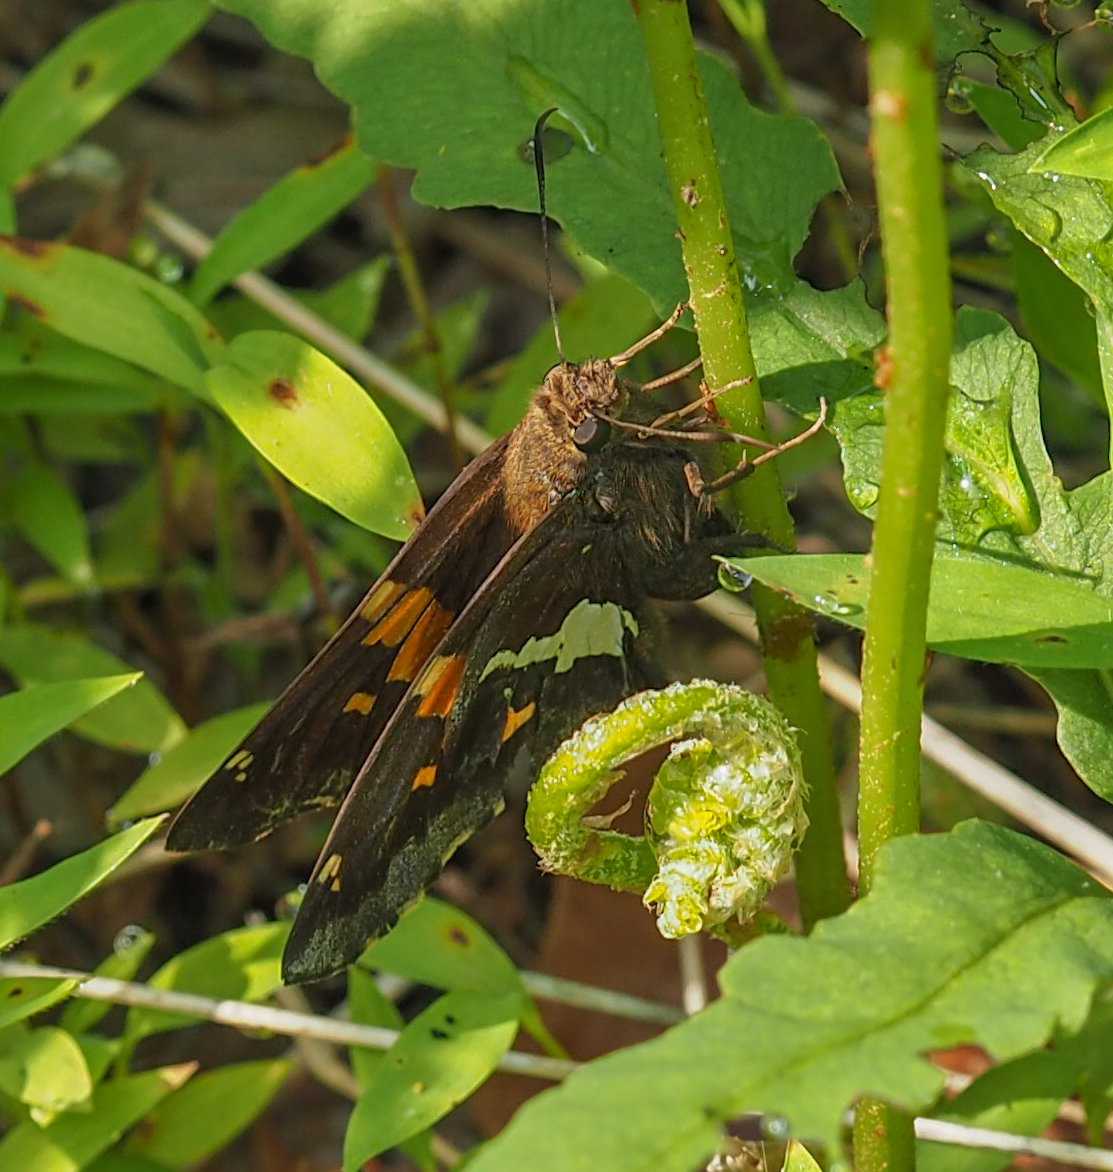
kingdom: Animalia
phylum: Arthropoda
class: Insecta
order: Lepidoptera
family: Hesperiidae
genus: Epargyreus
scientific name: Epargyreus clarus
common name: Silver-spotted skipper
